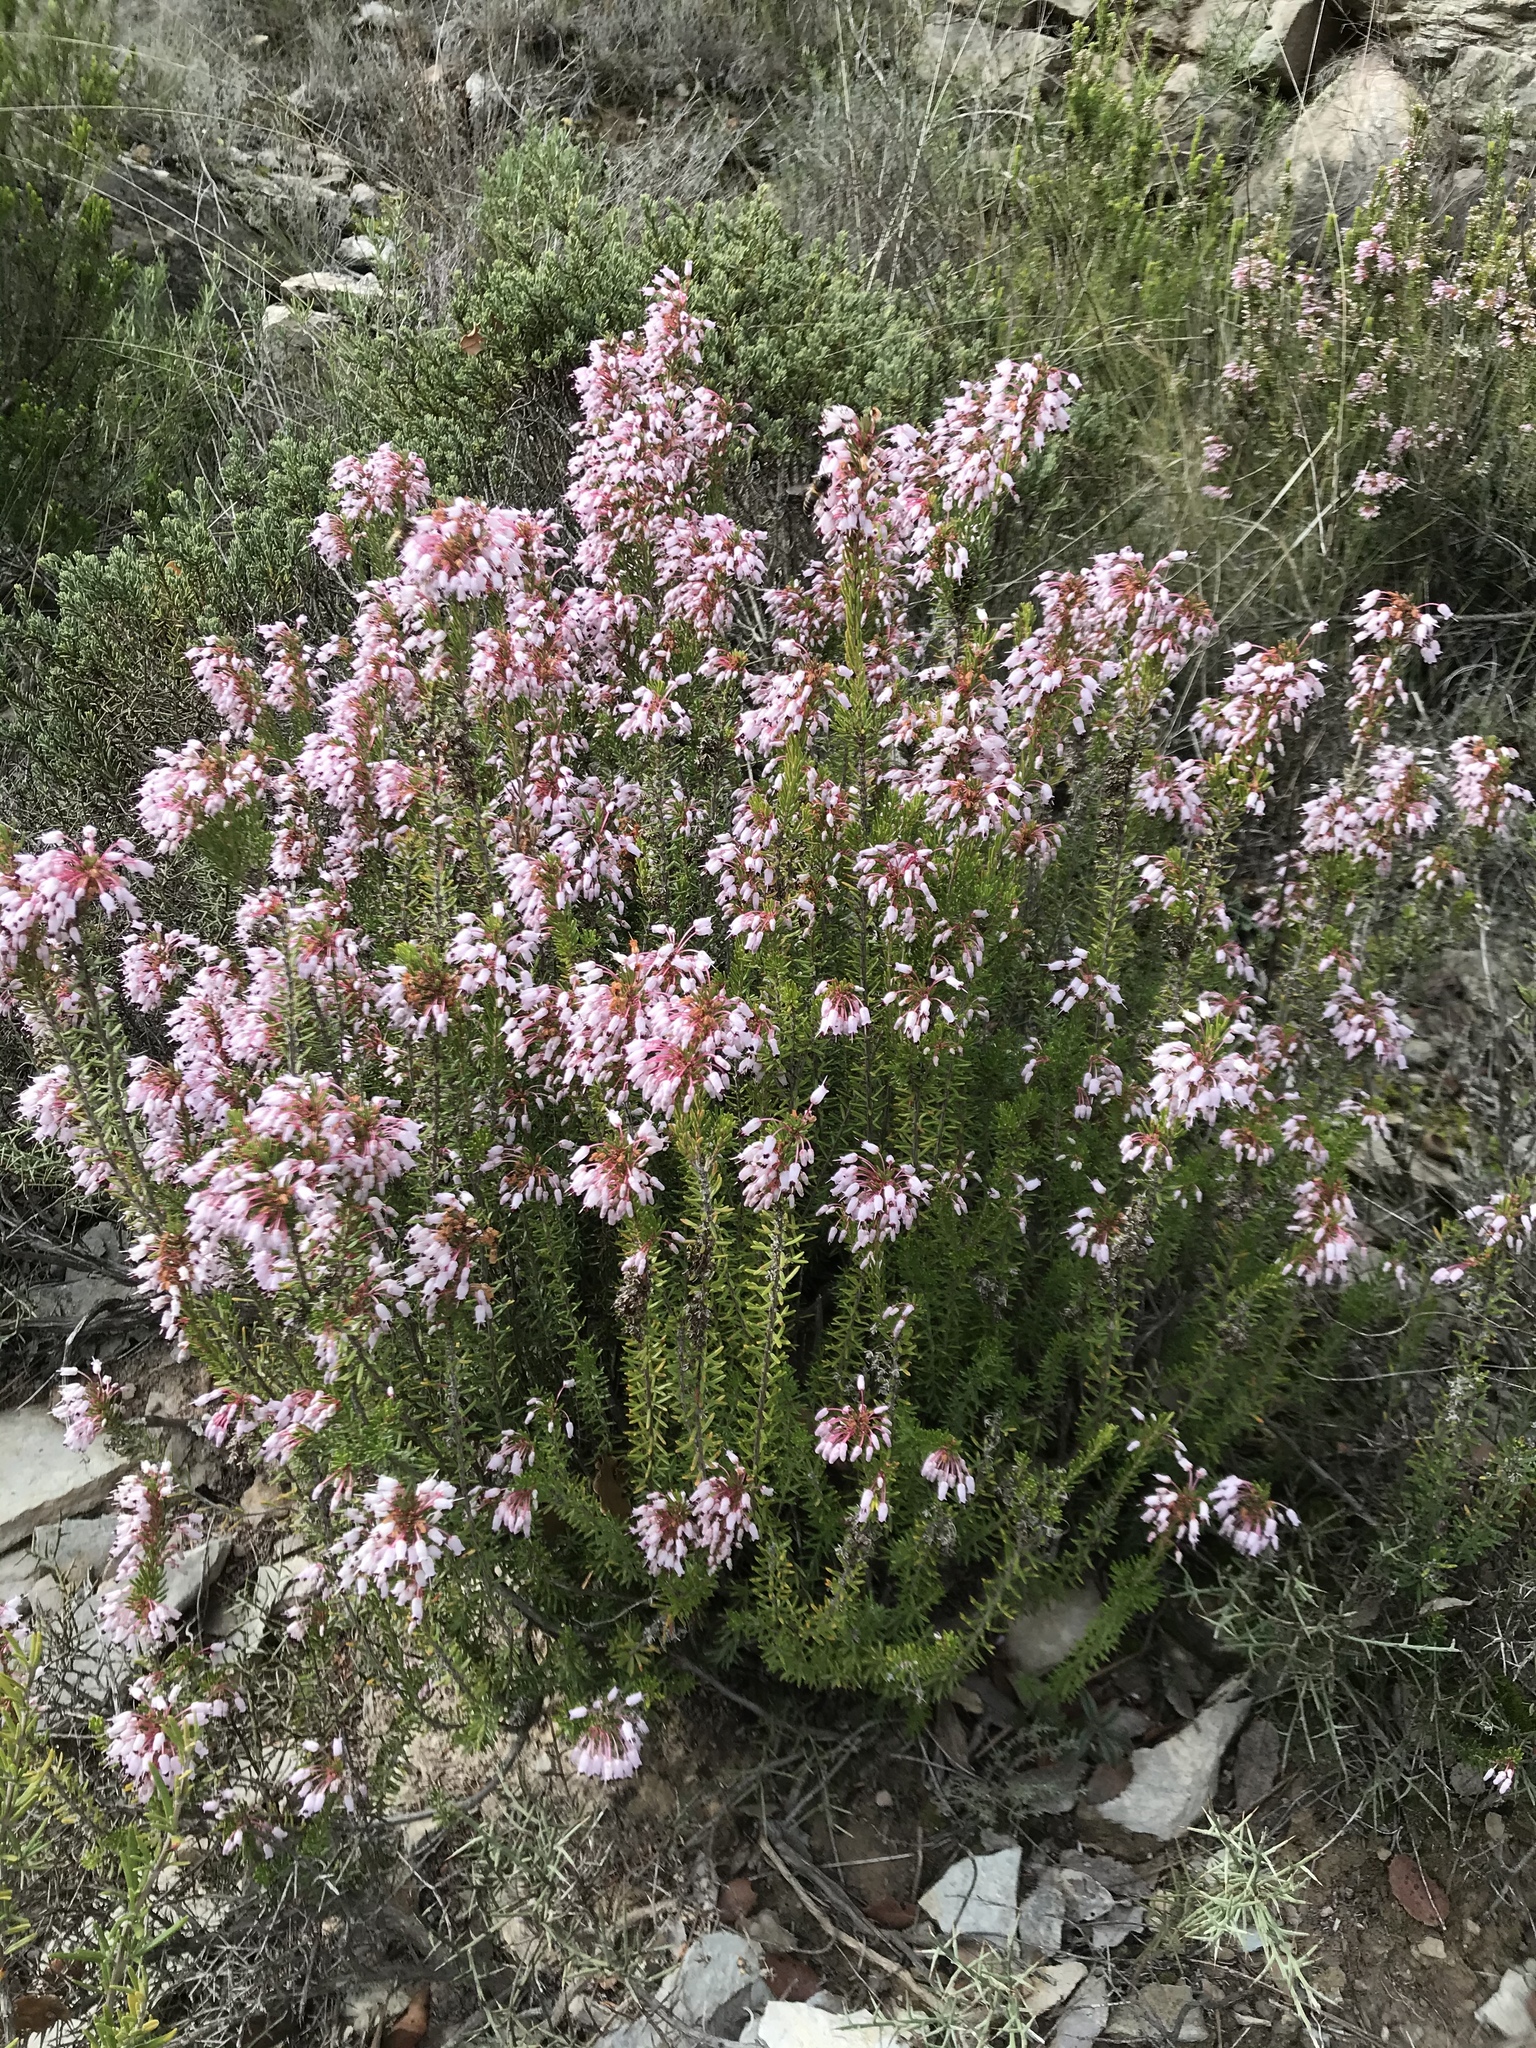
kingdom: Plantae
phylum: Tracheophyta
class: Magnoliopsida
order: Ericales
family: Ericaceae
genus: Erica
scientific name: Erica multiflora
